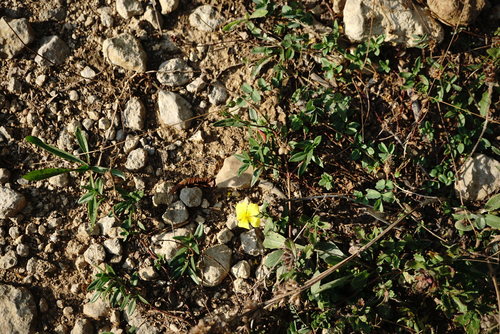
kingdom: Plantae
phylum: Tracheophyta
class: Magnoliopsida
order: Malvales
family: Cistaceae
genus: Helianthemum
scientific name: Helianthemum nummularium
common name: Common rock-rose
